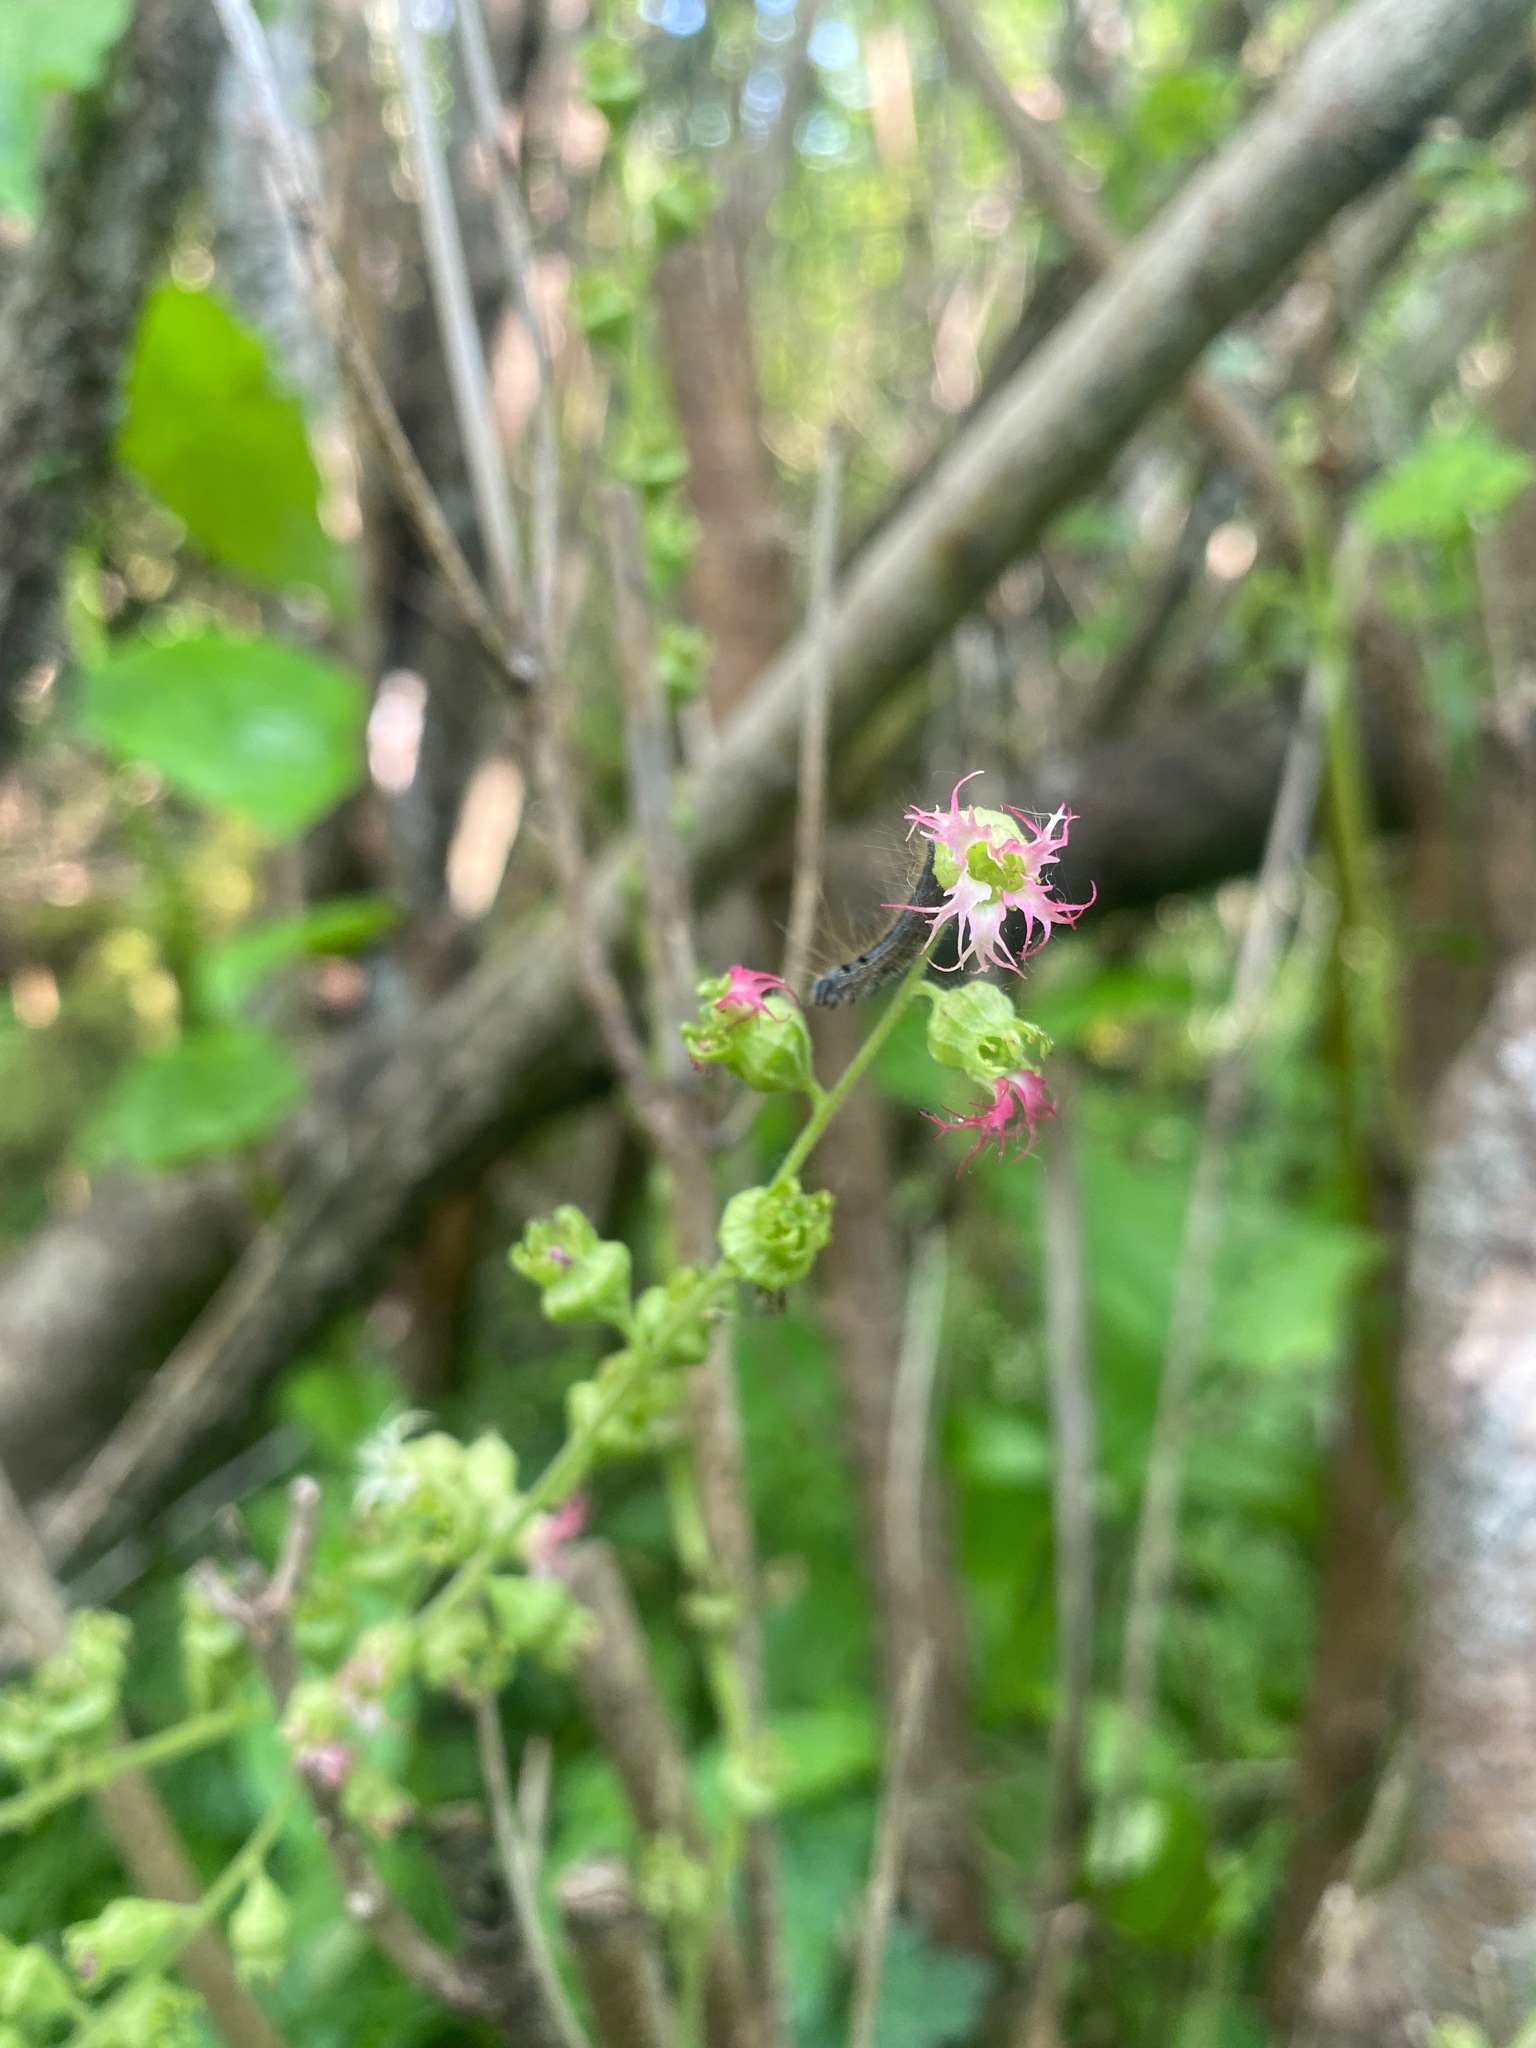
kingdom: Plantae
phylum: Tracheophyta
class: Magnoliopsida
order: Saxifragales
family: Saxifragaceae
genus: Tellima
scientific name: Tellima grandiflora
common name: Fringecups
